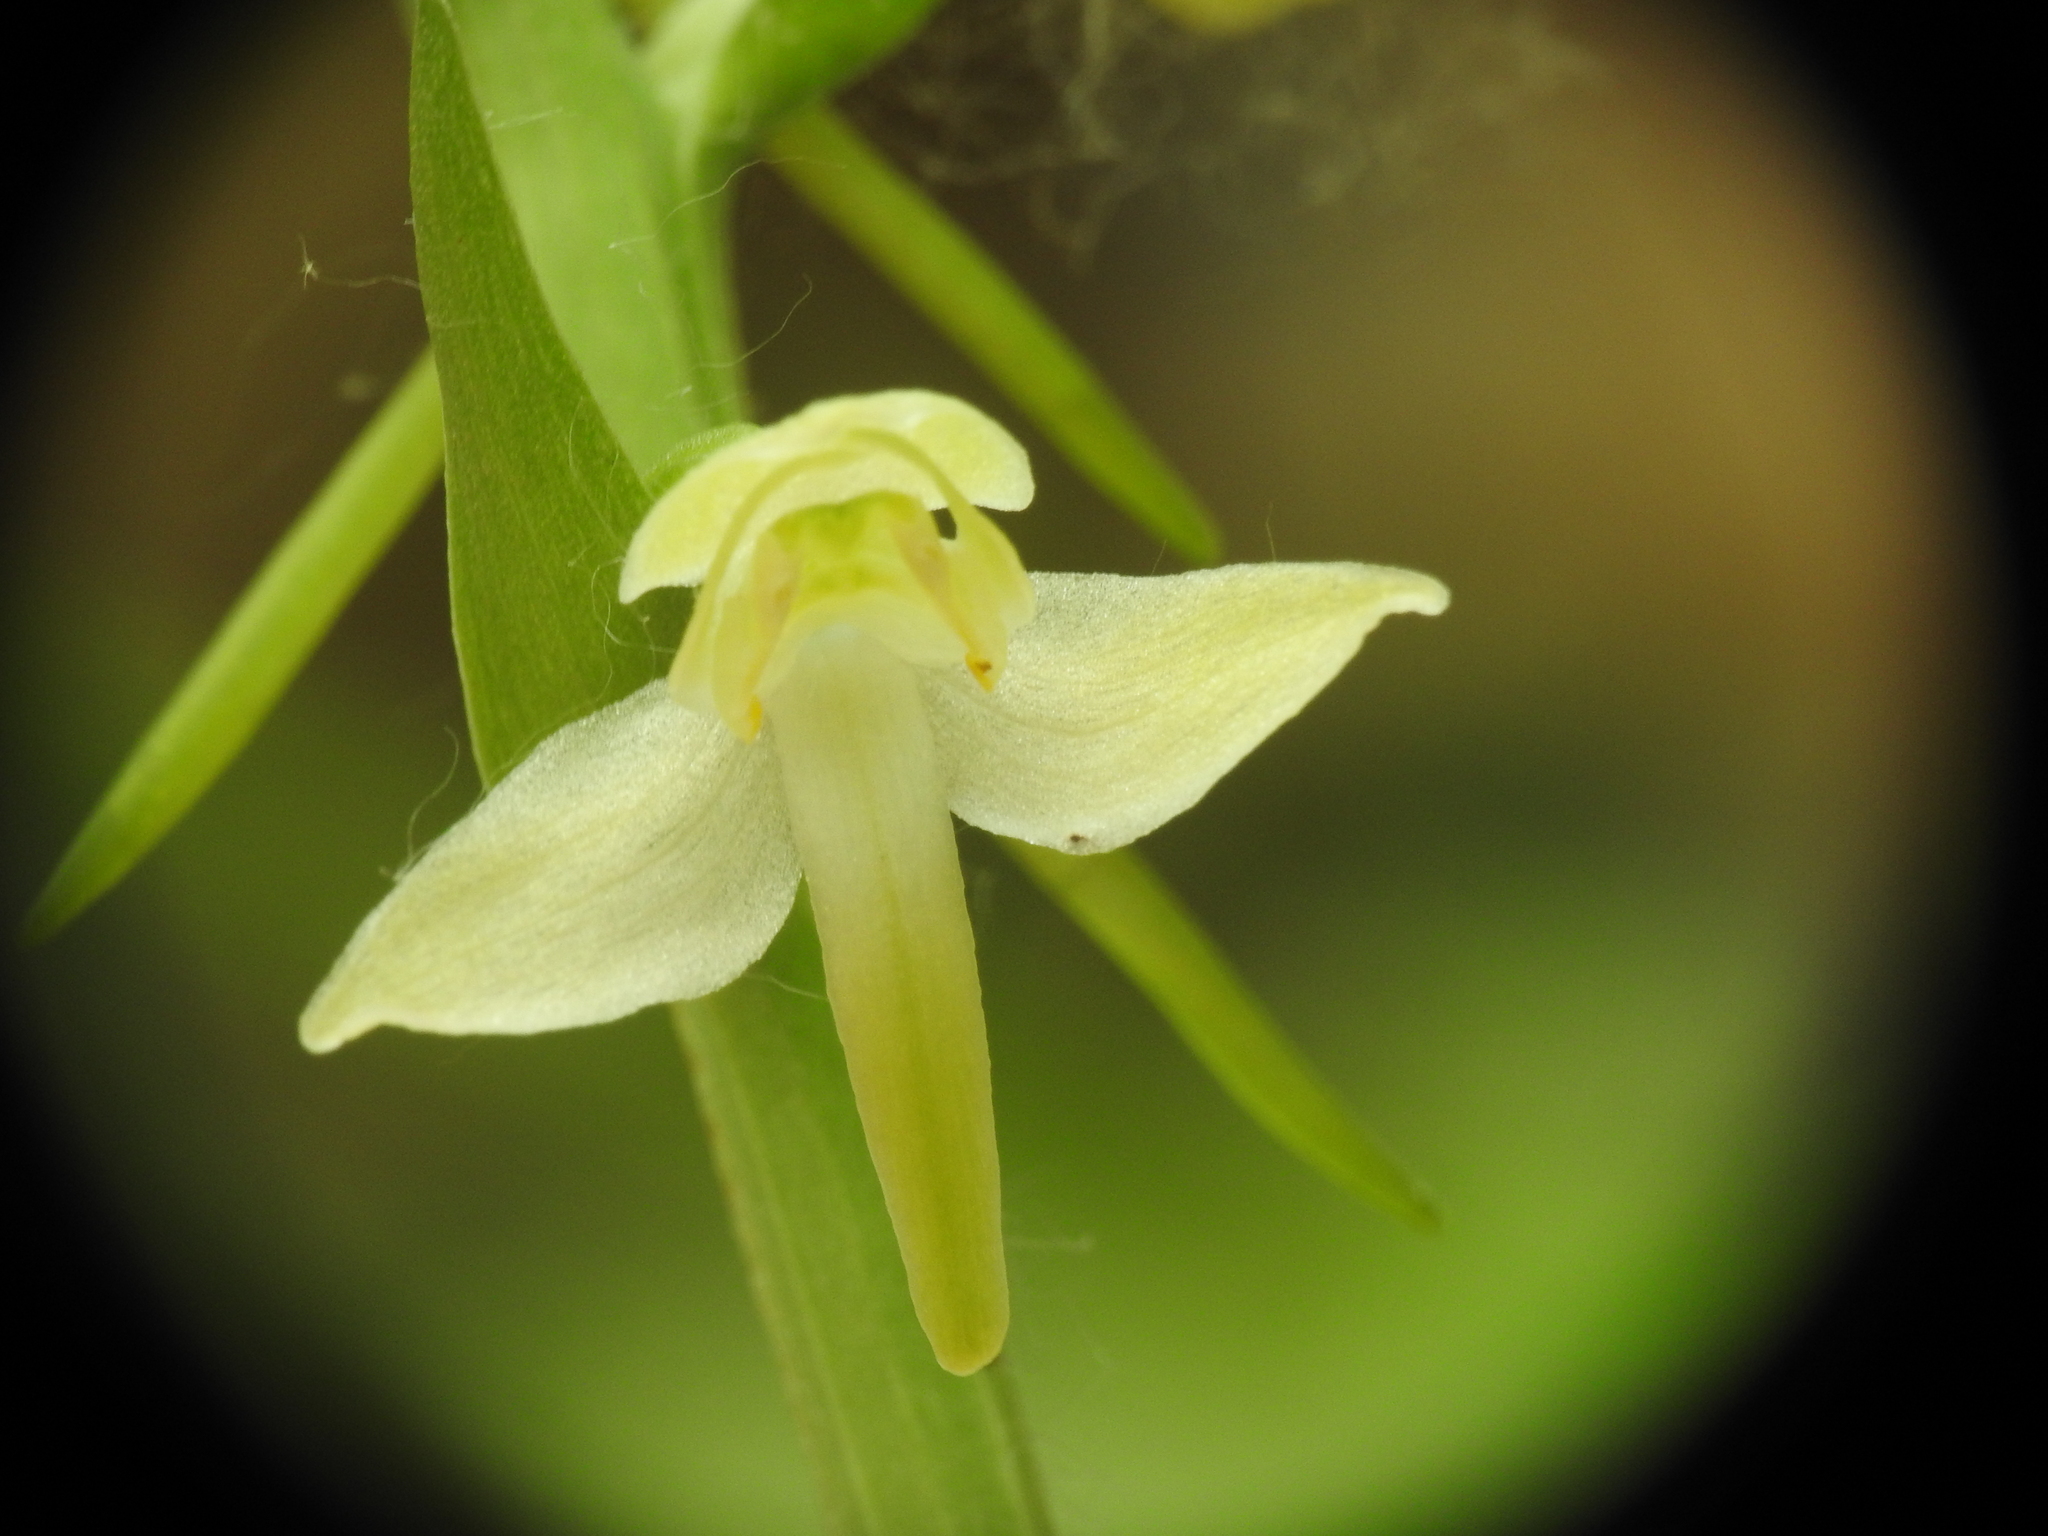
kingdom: Plantae
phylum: Tracheophyta
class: Liliopsida
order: Asparagales
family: Orchidaceae
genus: Platanthera
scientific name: Platanthera chlorantha
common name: Greater butterfly-orchid
